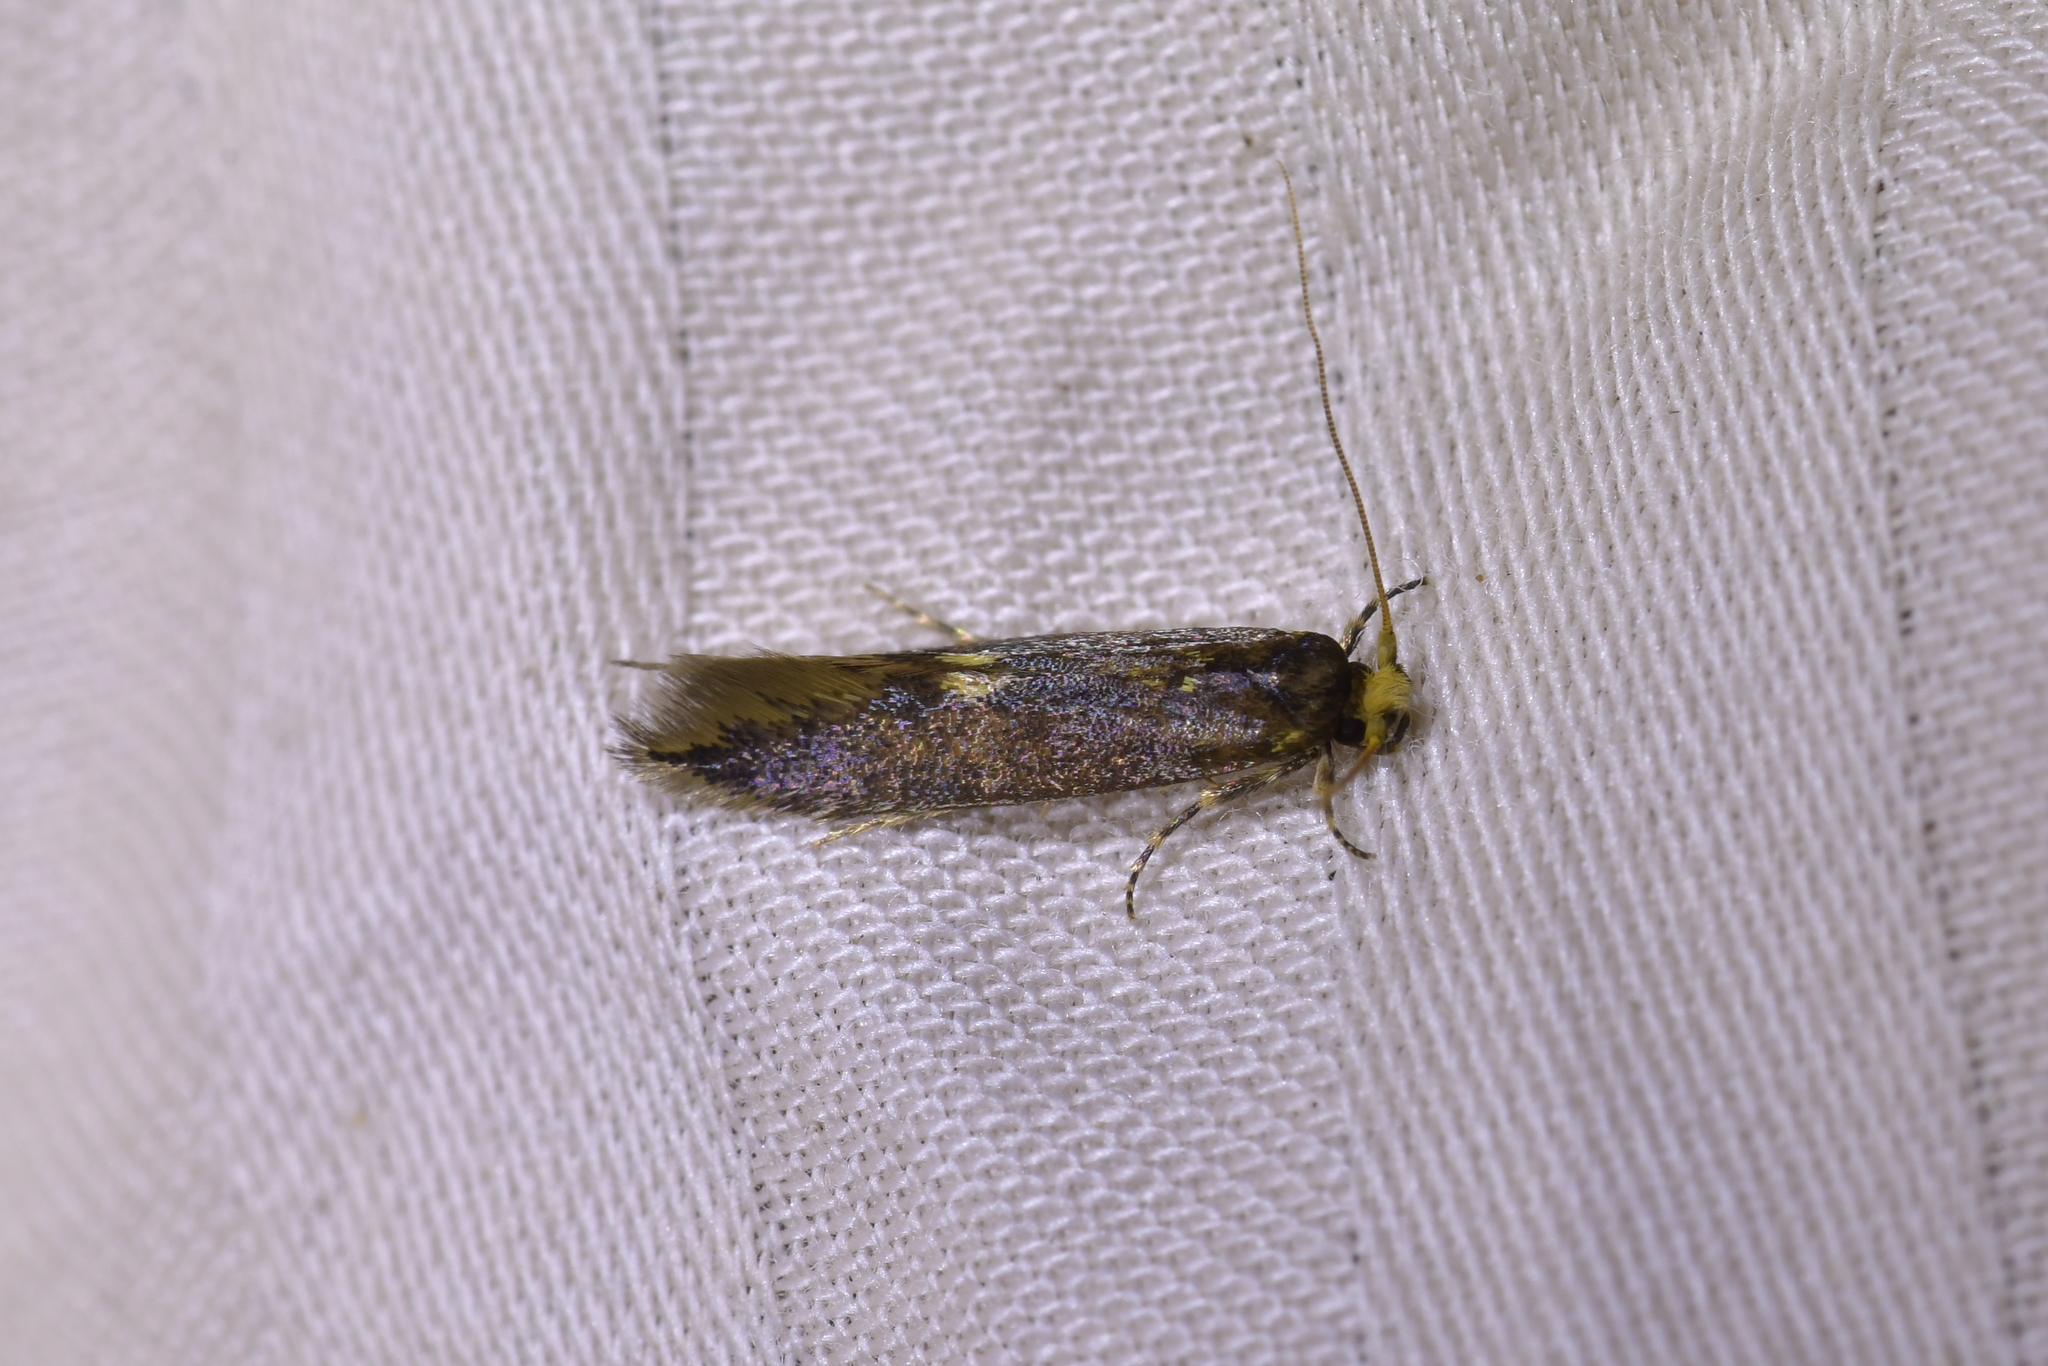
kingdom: Animalia
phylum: Arthropoda
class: Insecta
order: Lepidoptera
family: Tineidae
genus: Opogona
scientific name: Opogona omoscopa
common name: Moth
